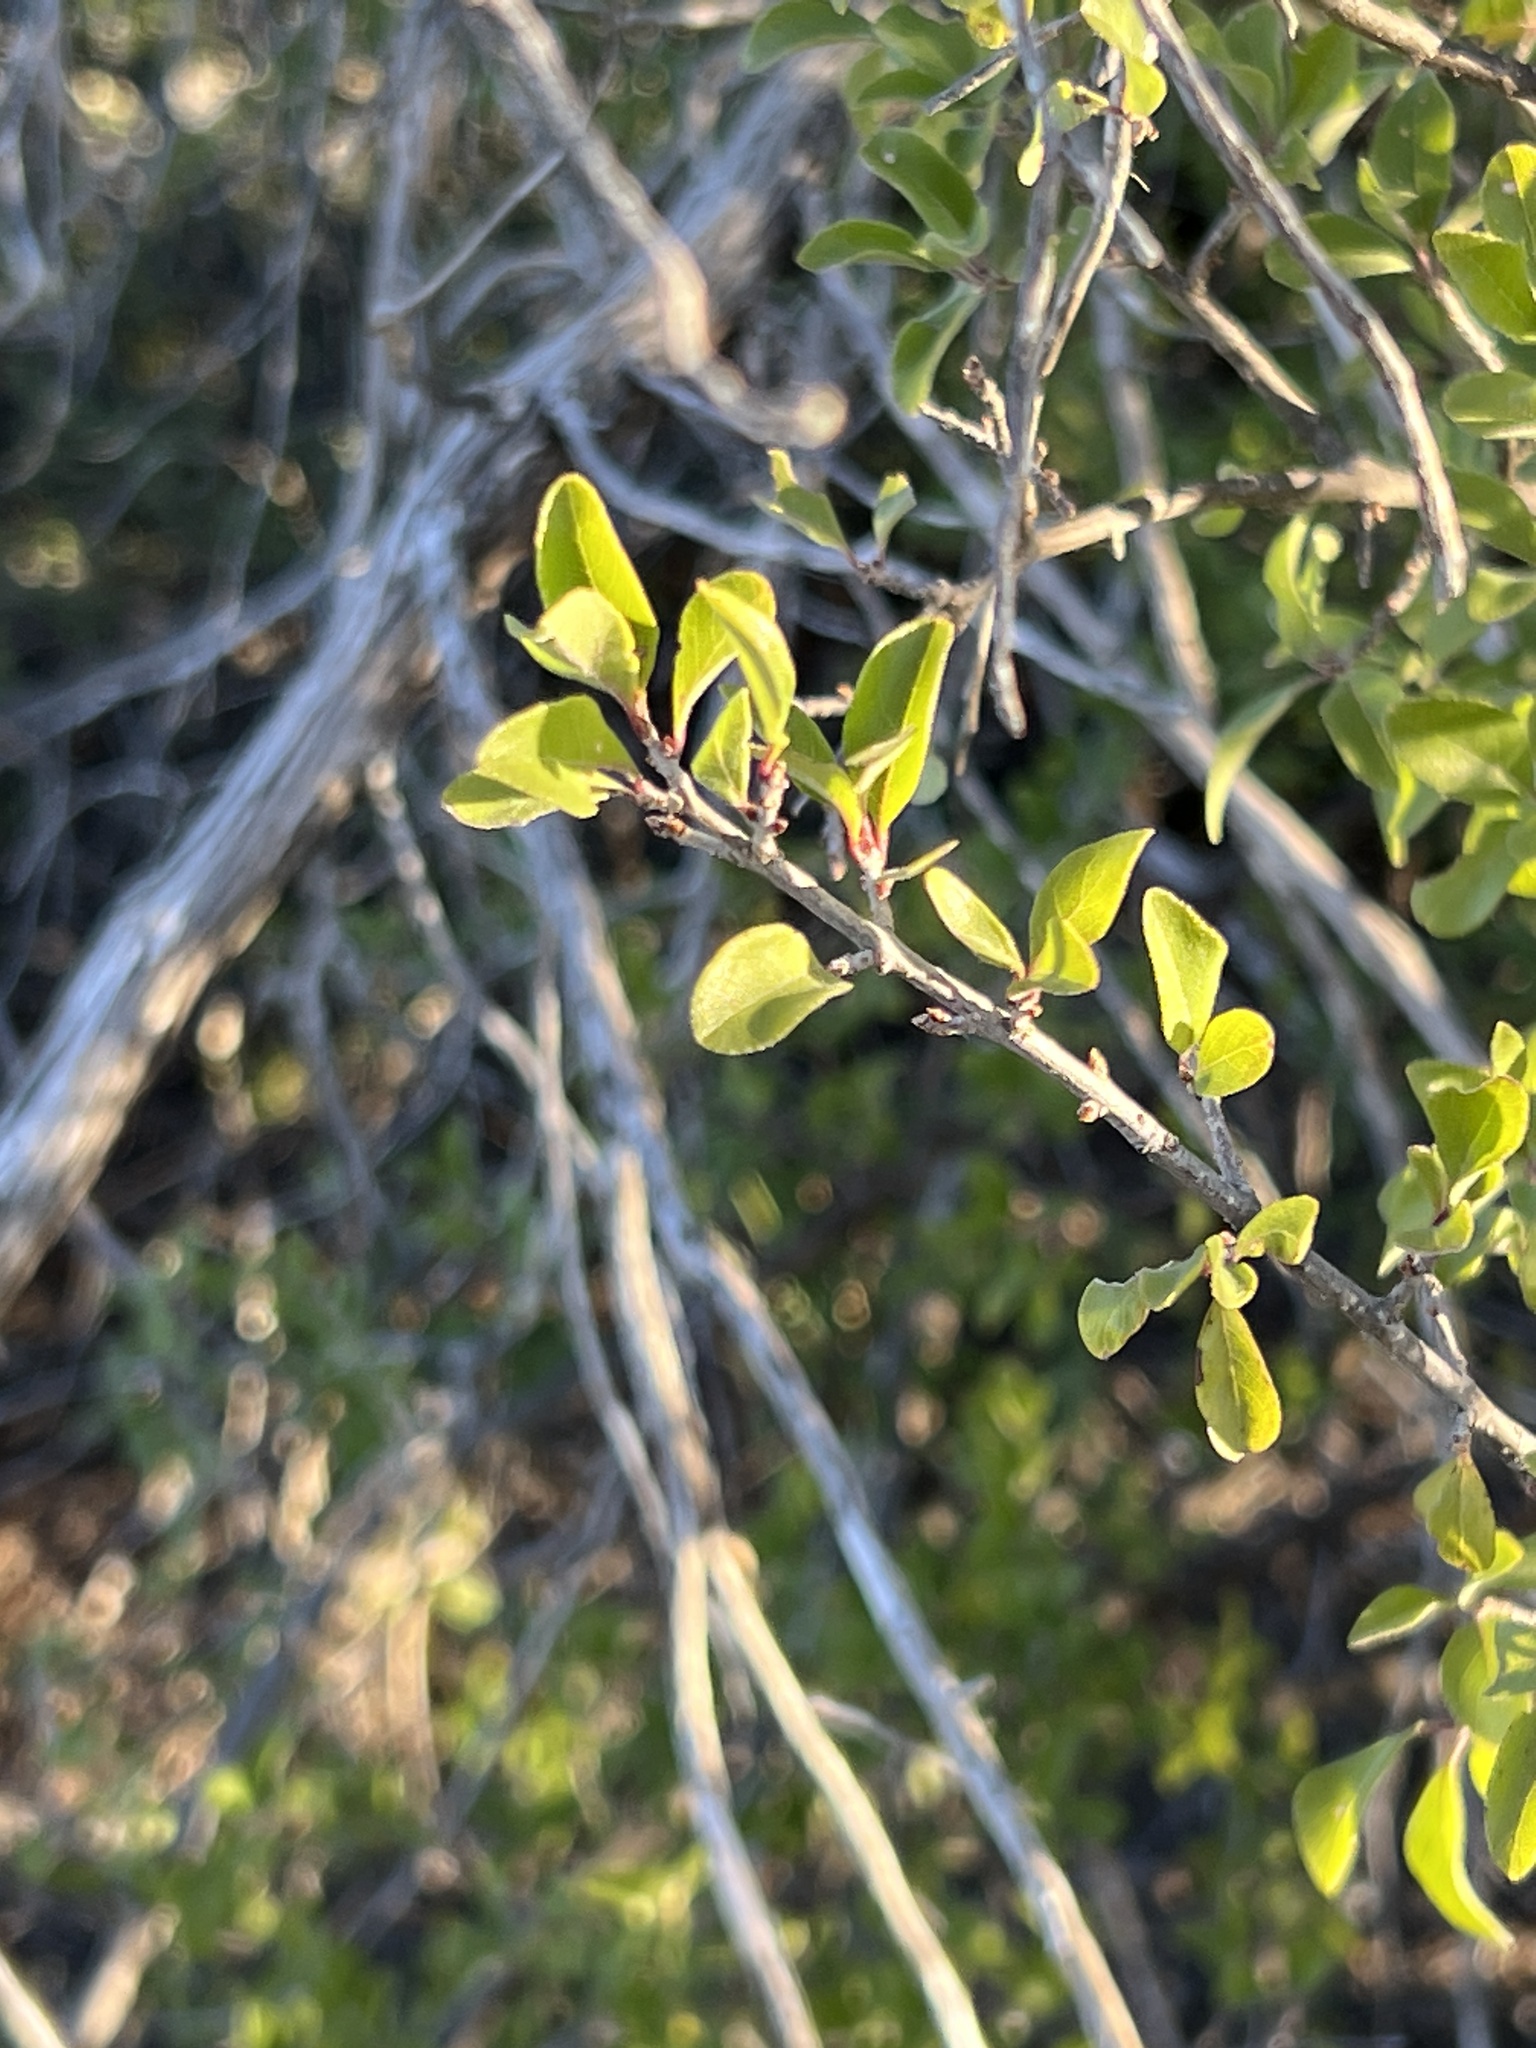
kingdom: Plantae
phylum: Tracheophyta
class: Magnoliopsida
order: Lamiales
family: Oleaceae
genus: Forestiera
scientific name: Forestiera pubescens
